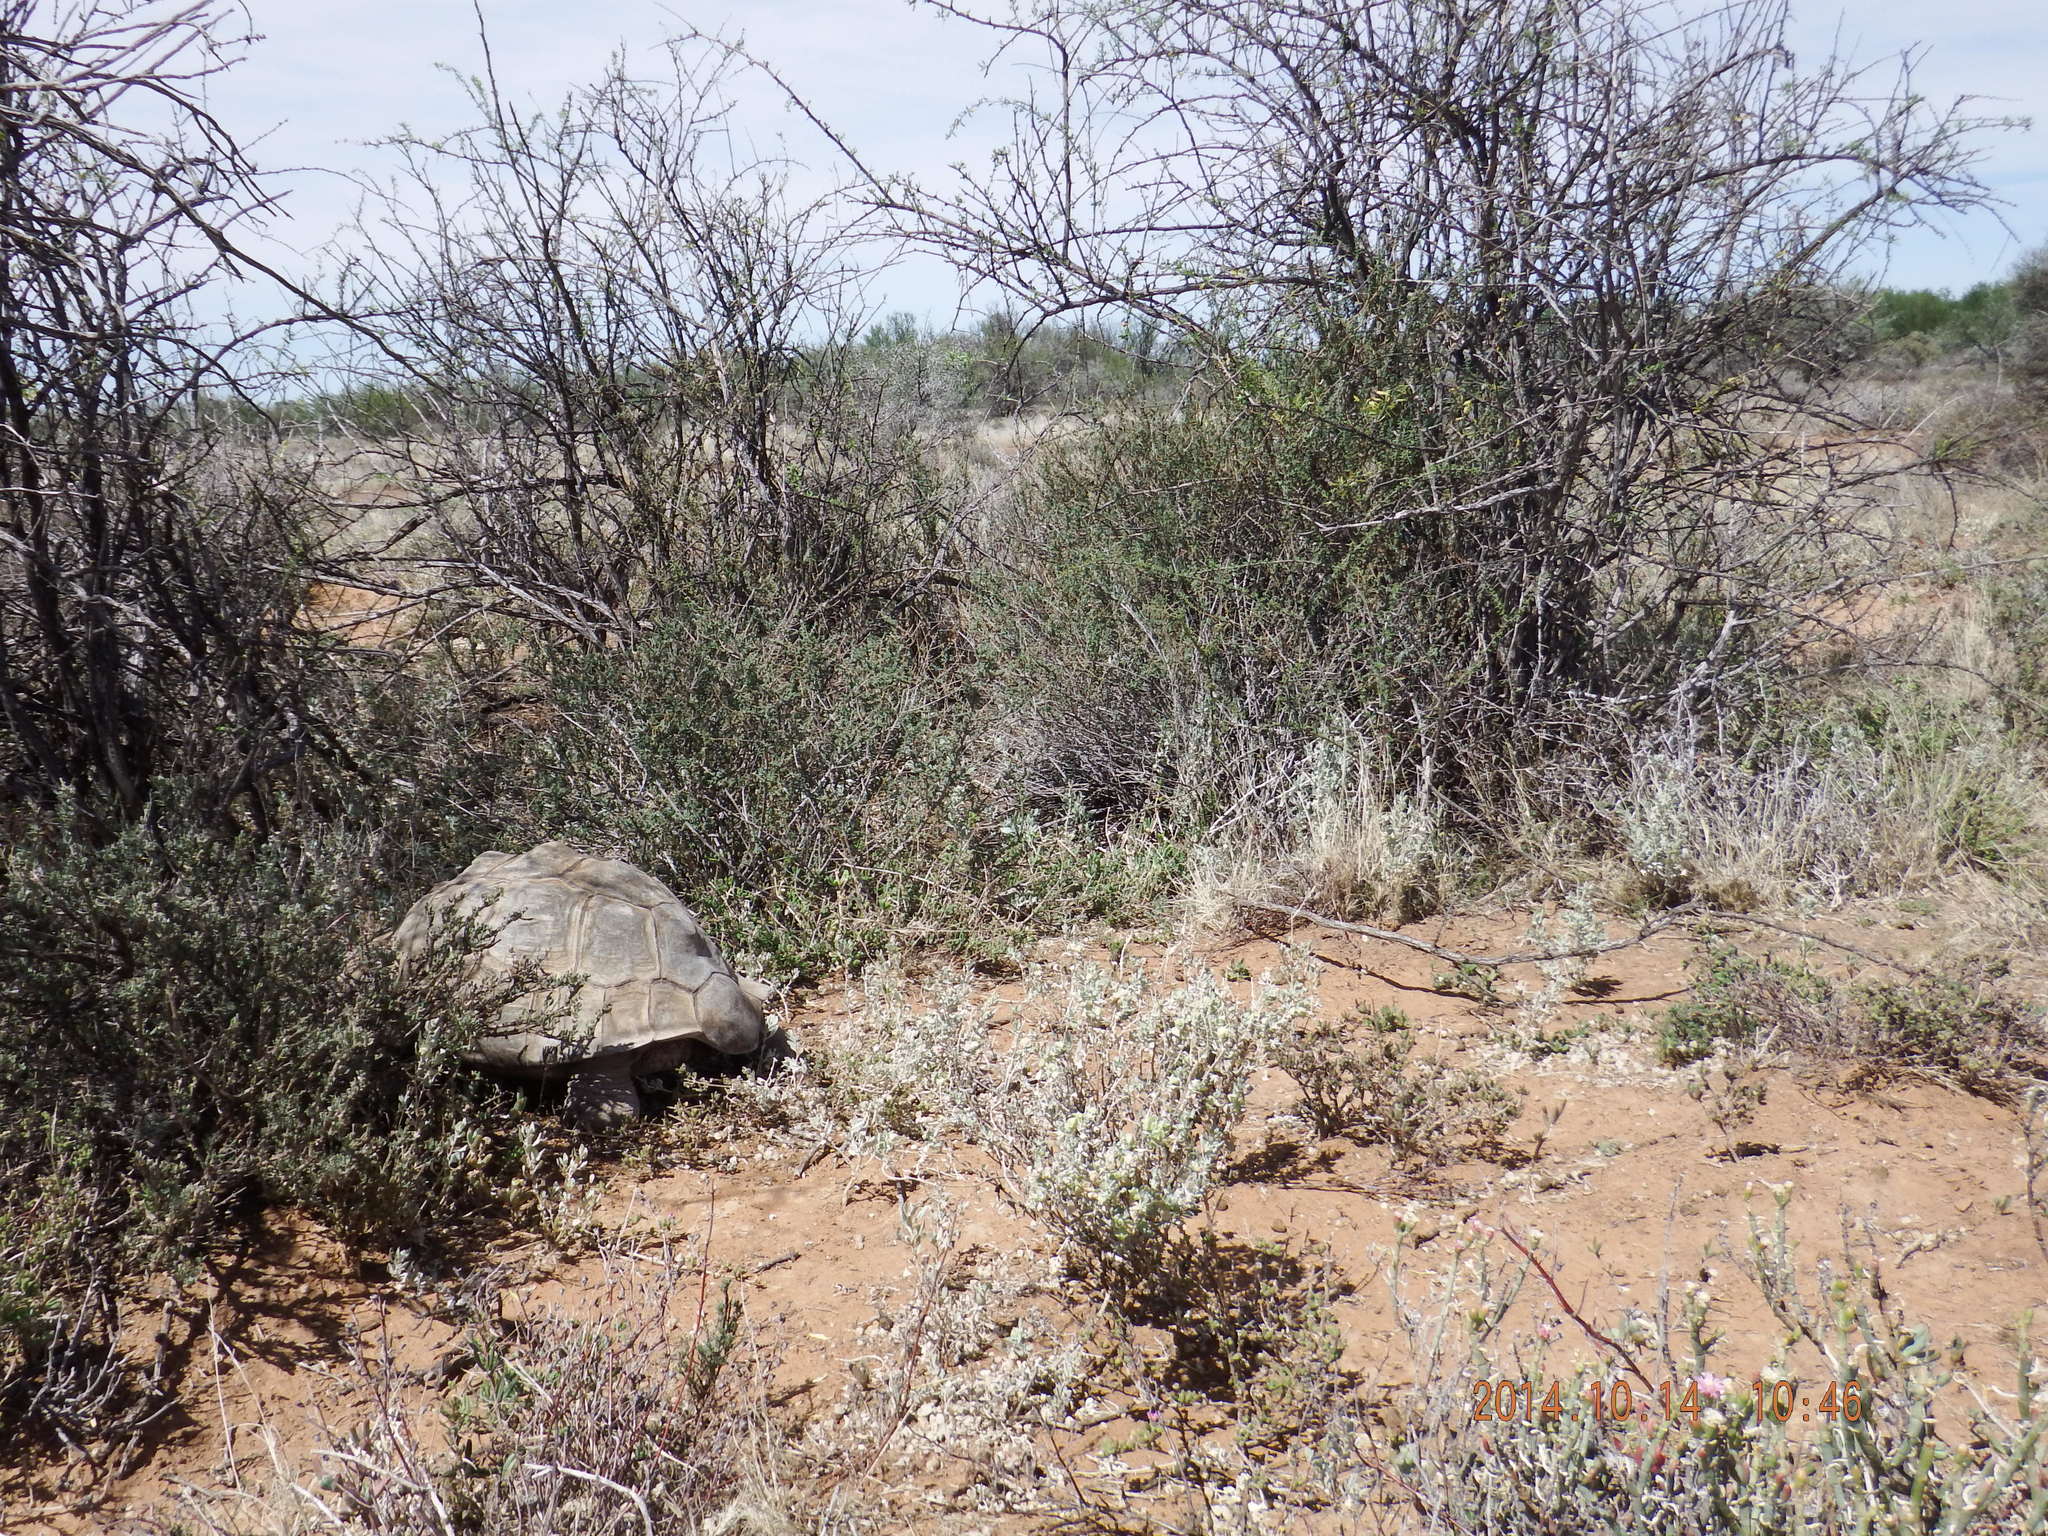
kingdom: Animalia
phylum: Chordata
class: Testudines
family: Testudinidae
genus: Stigmochelys
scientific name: Stigmochelys pardalis
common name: Leopard tortoise
